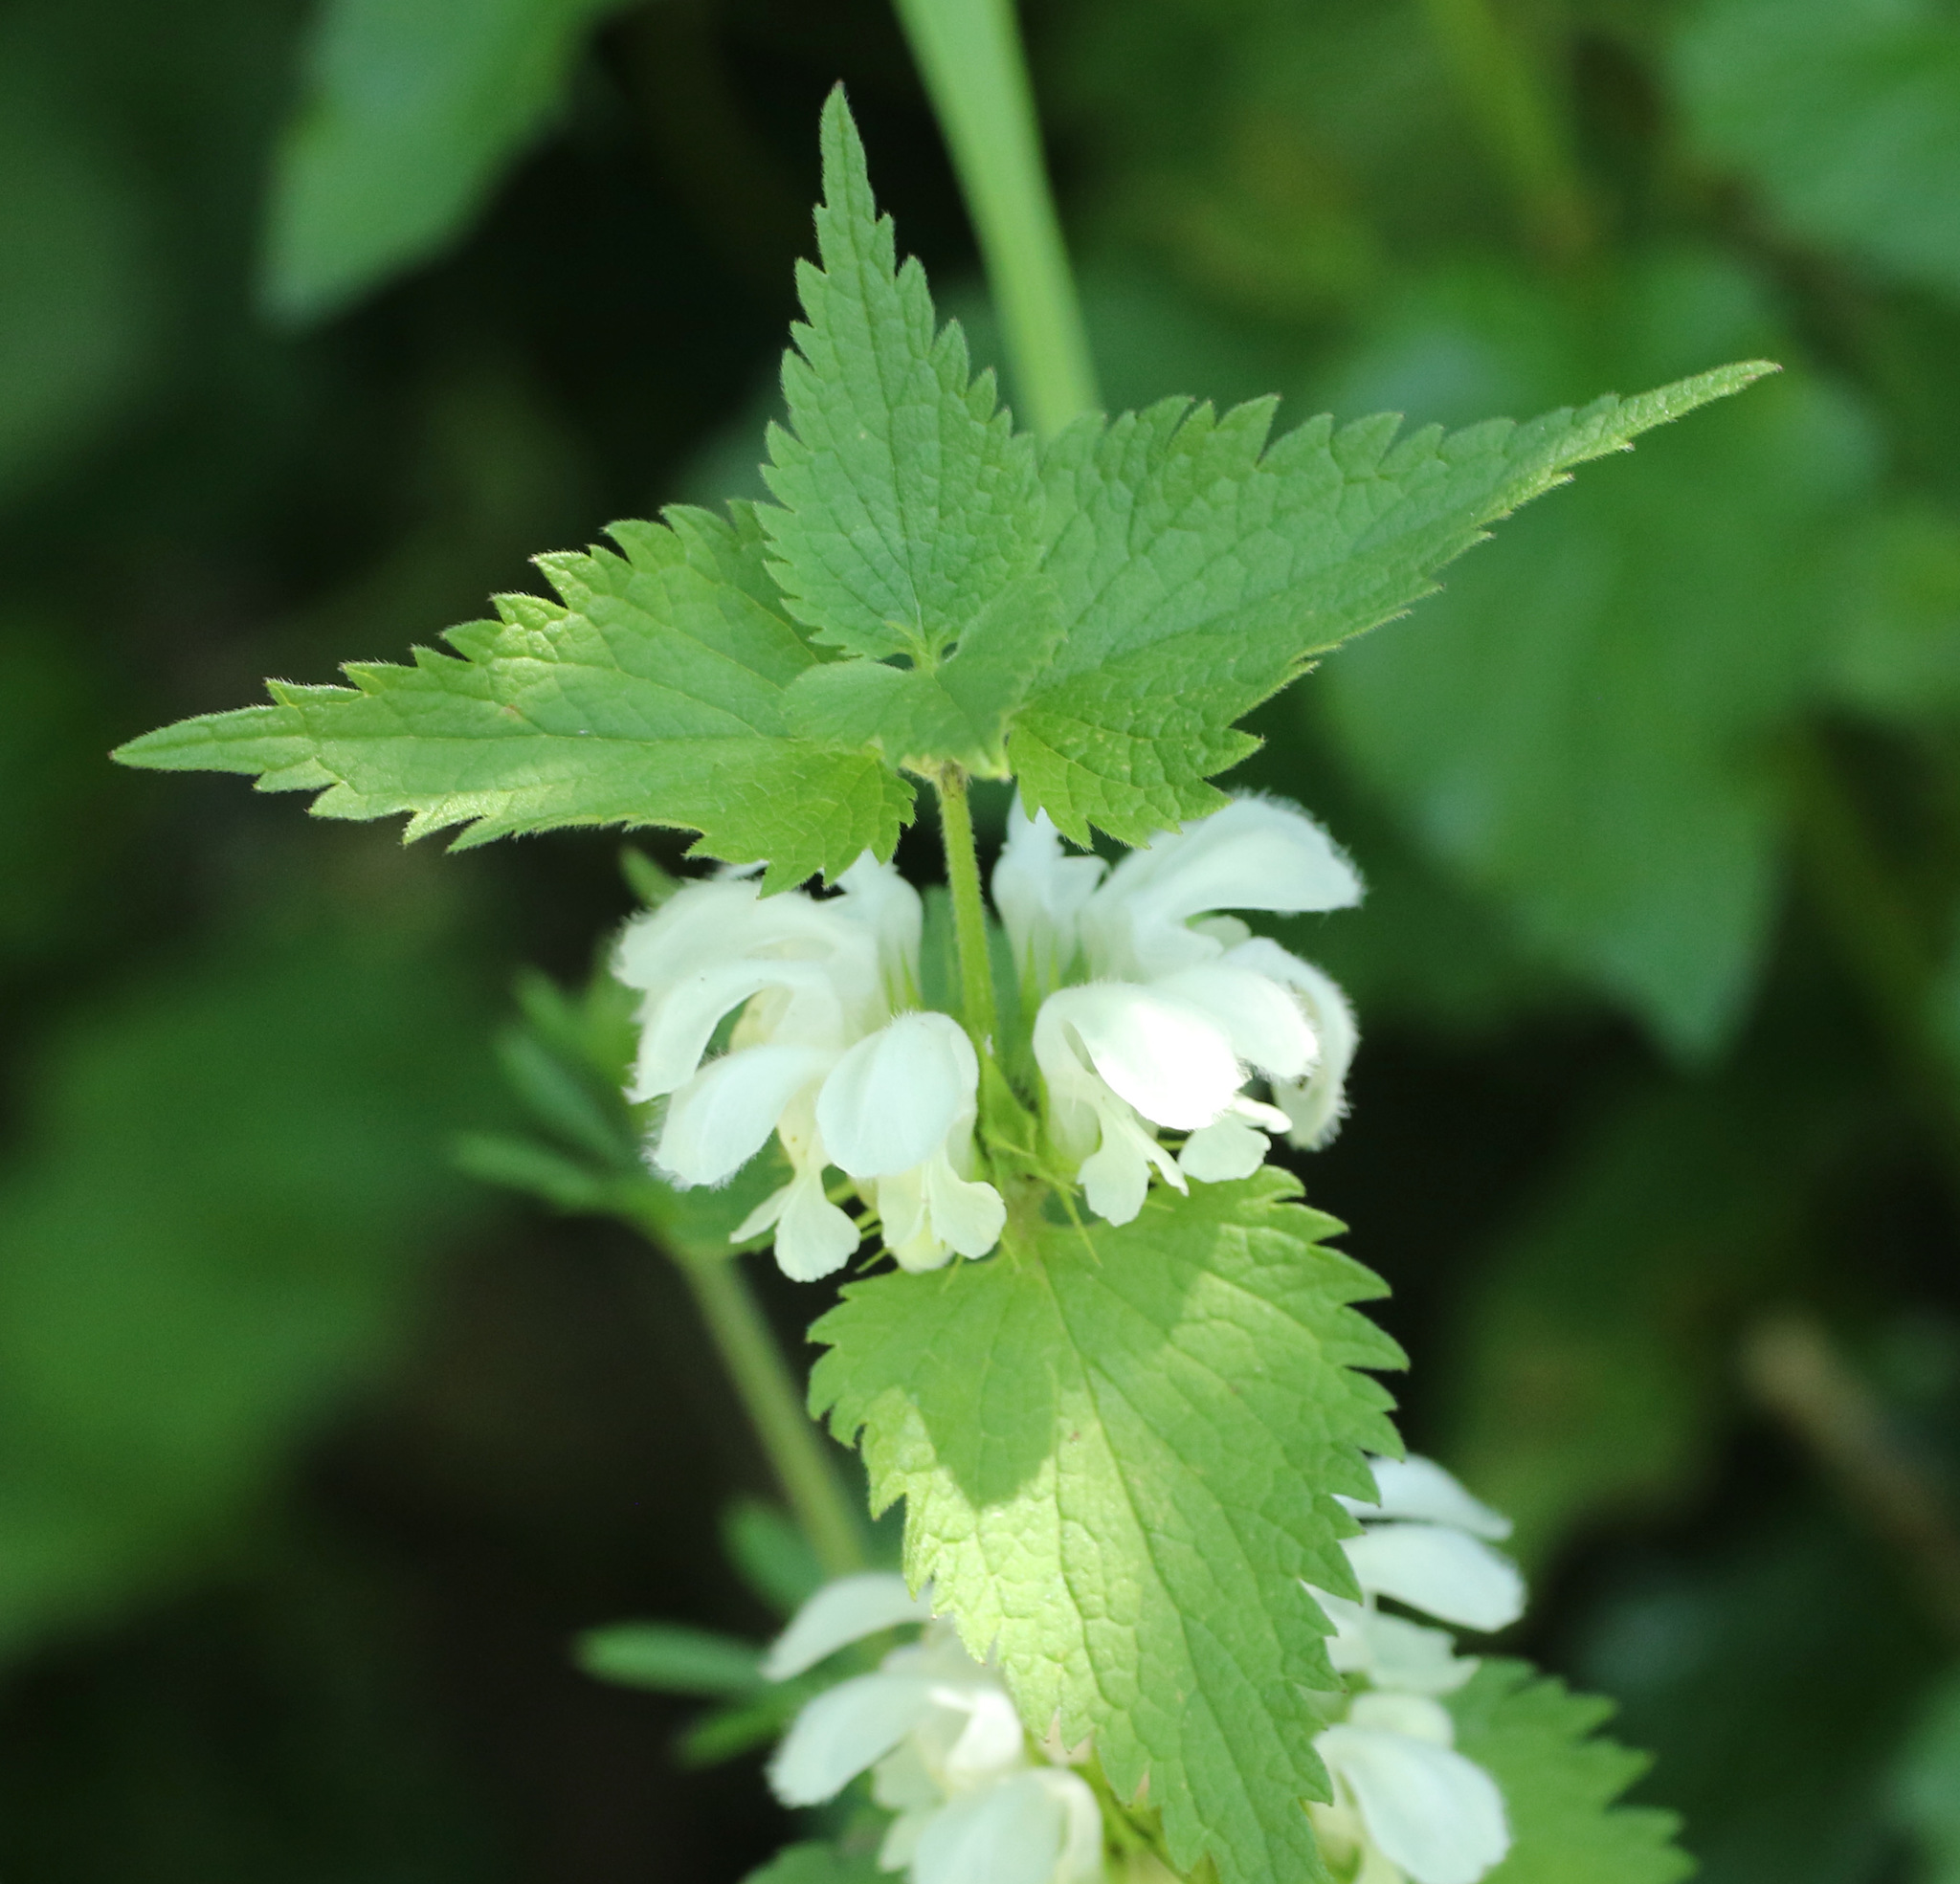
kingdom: Plantae
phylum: Tracheophyta
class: Magnoliopsida
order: Lamiales
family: Lamiaceae
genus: Lamium
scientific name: Lamium album
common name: White dead-nettle
